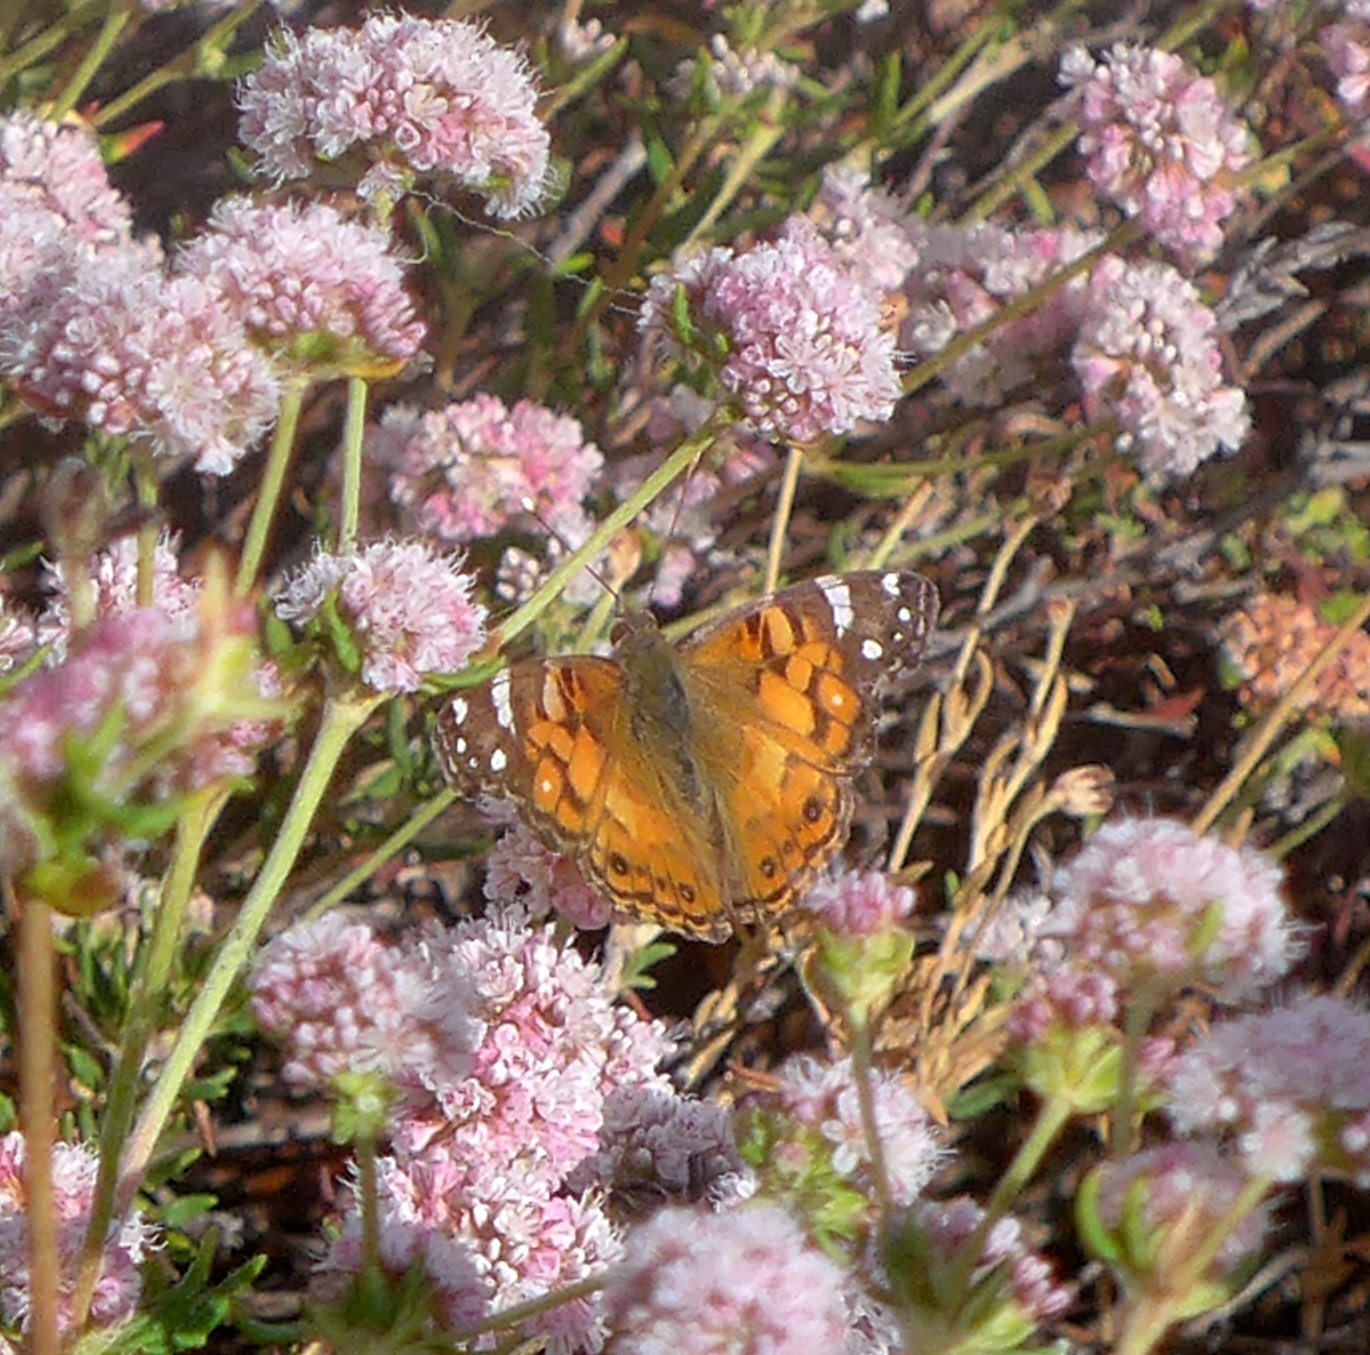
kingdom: Animalia
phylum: Arthropoda
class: Insecta
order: Lepidoptera
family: Nymphalidae
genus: Vanessa
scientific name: Vanessa virginiensis
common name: American lady
